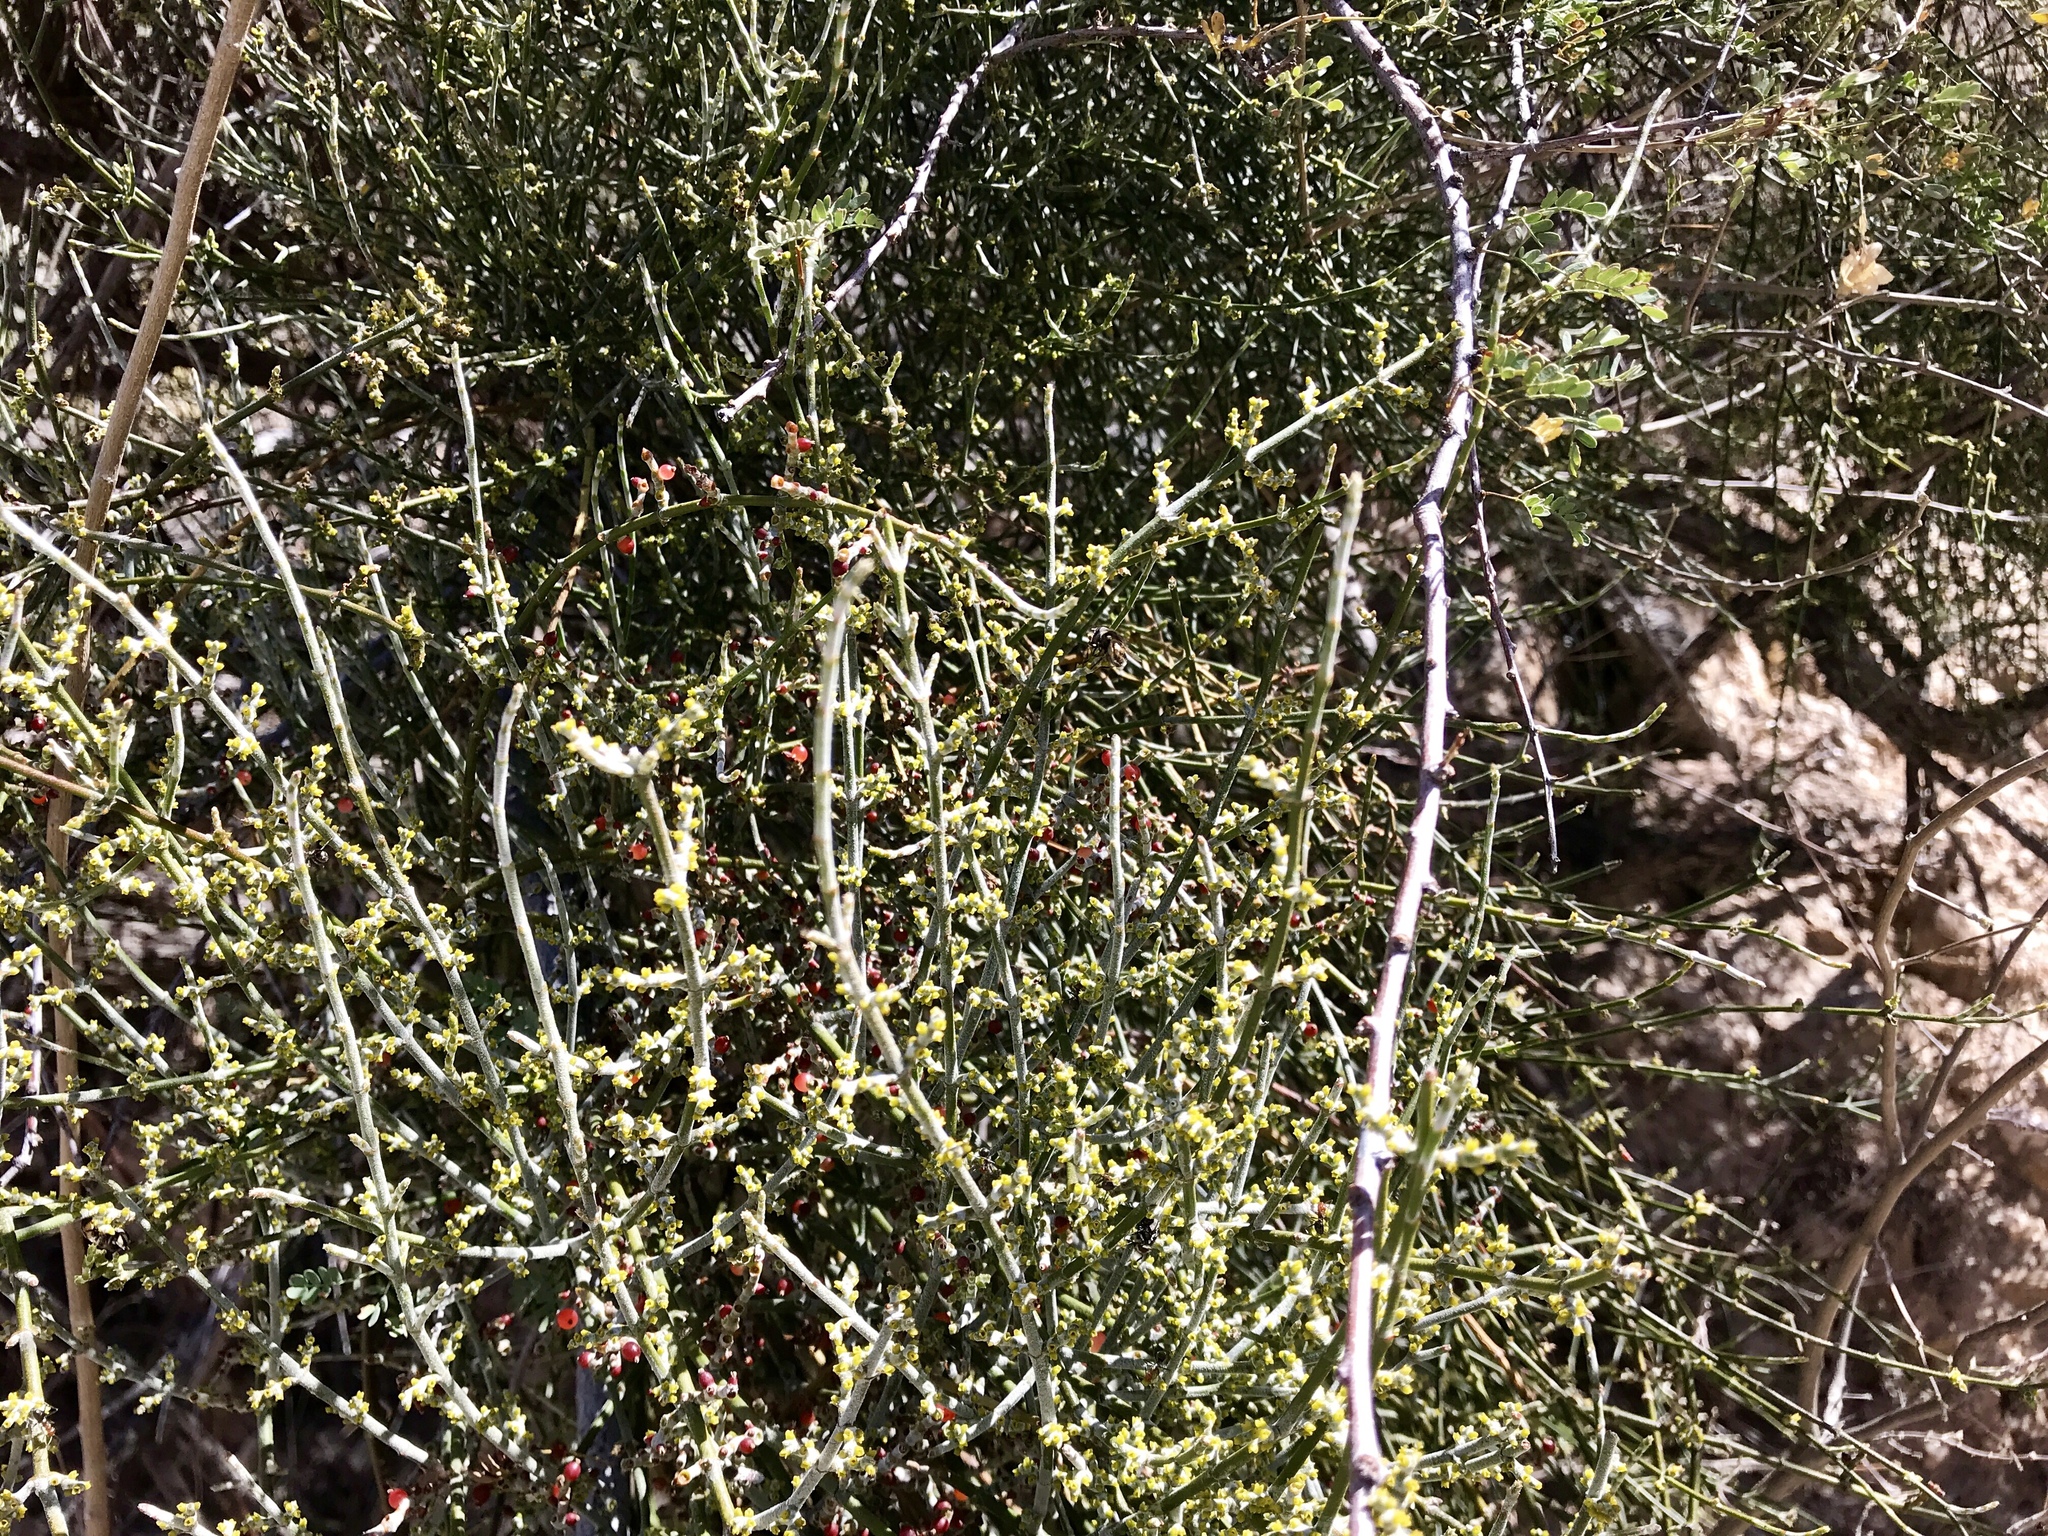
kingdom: Plantae
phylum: Tracheophyta
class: Magnoliopsida
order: Santalales
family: Viscaceae
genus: Phoradendron
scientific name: Phoradendron californicum
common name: Acacia mistletoe
